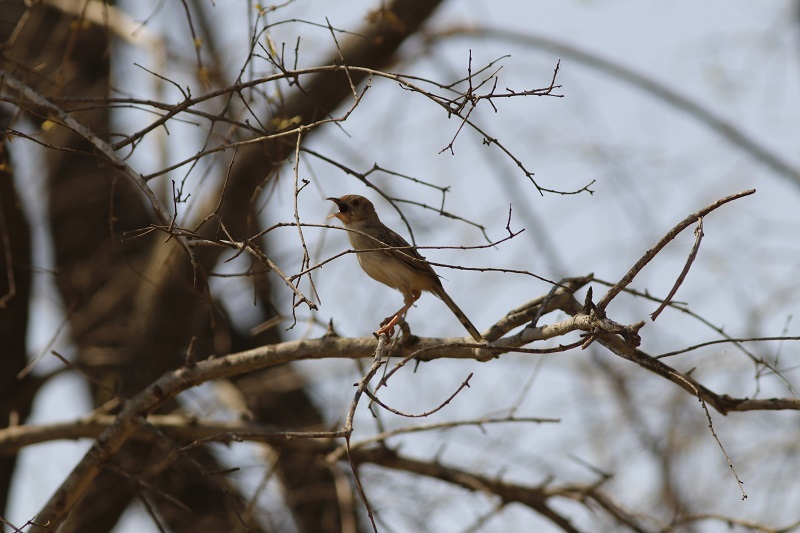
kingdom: Animalia
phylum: Chordata
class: Aves
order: Passeriformes
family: Cisticolidae
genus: Cisticola
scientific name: Cisticola chiniana
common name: Rattling cisticola
